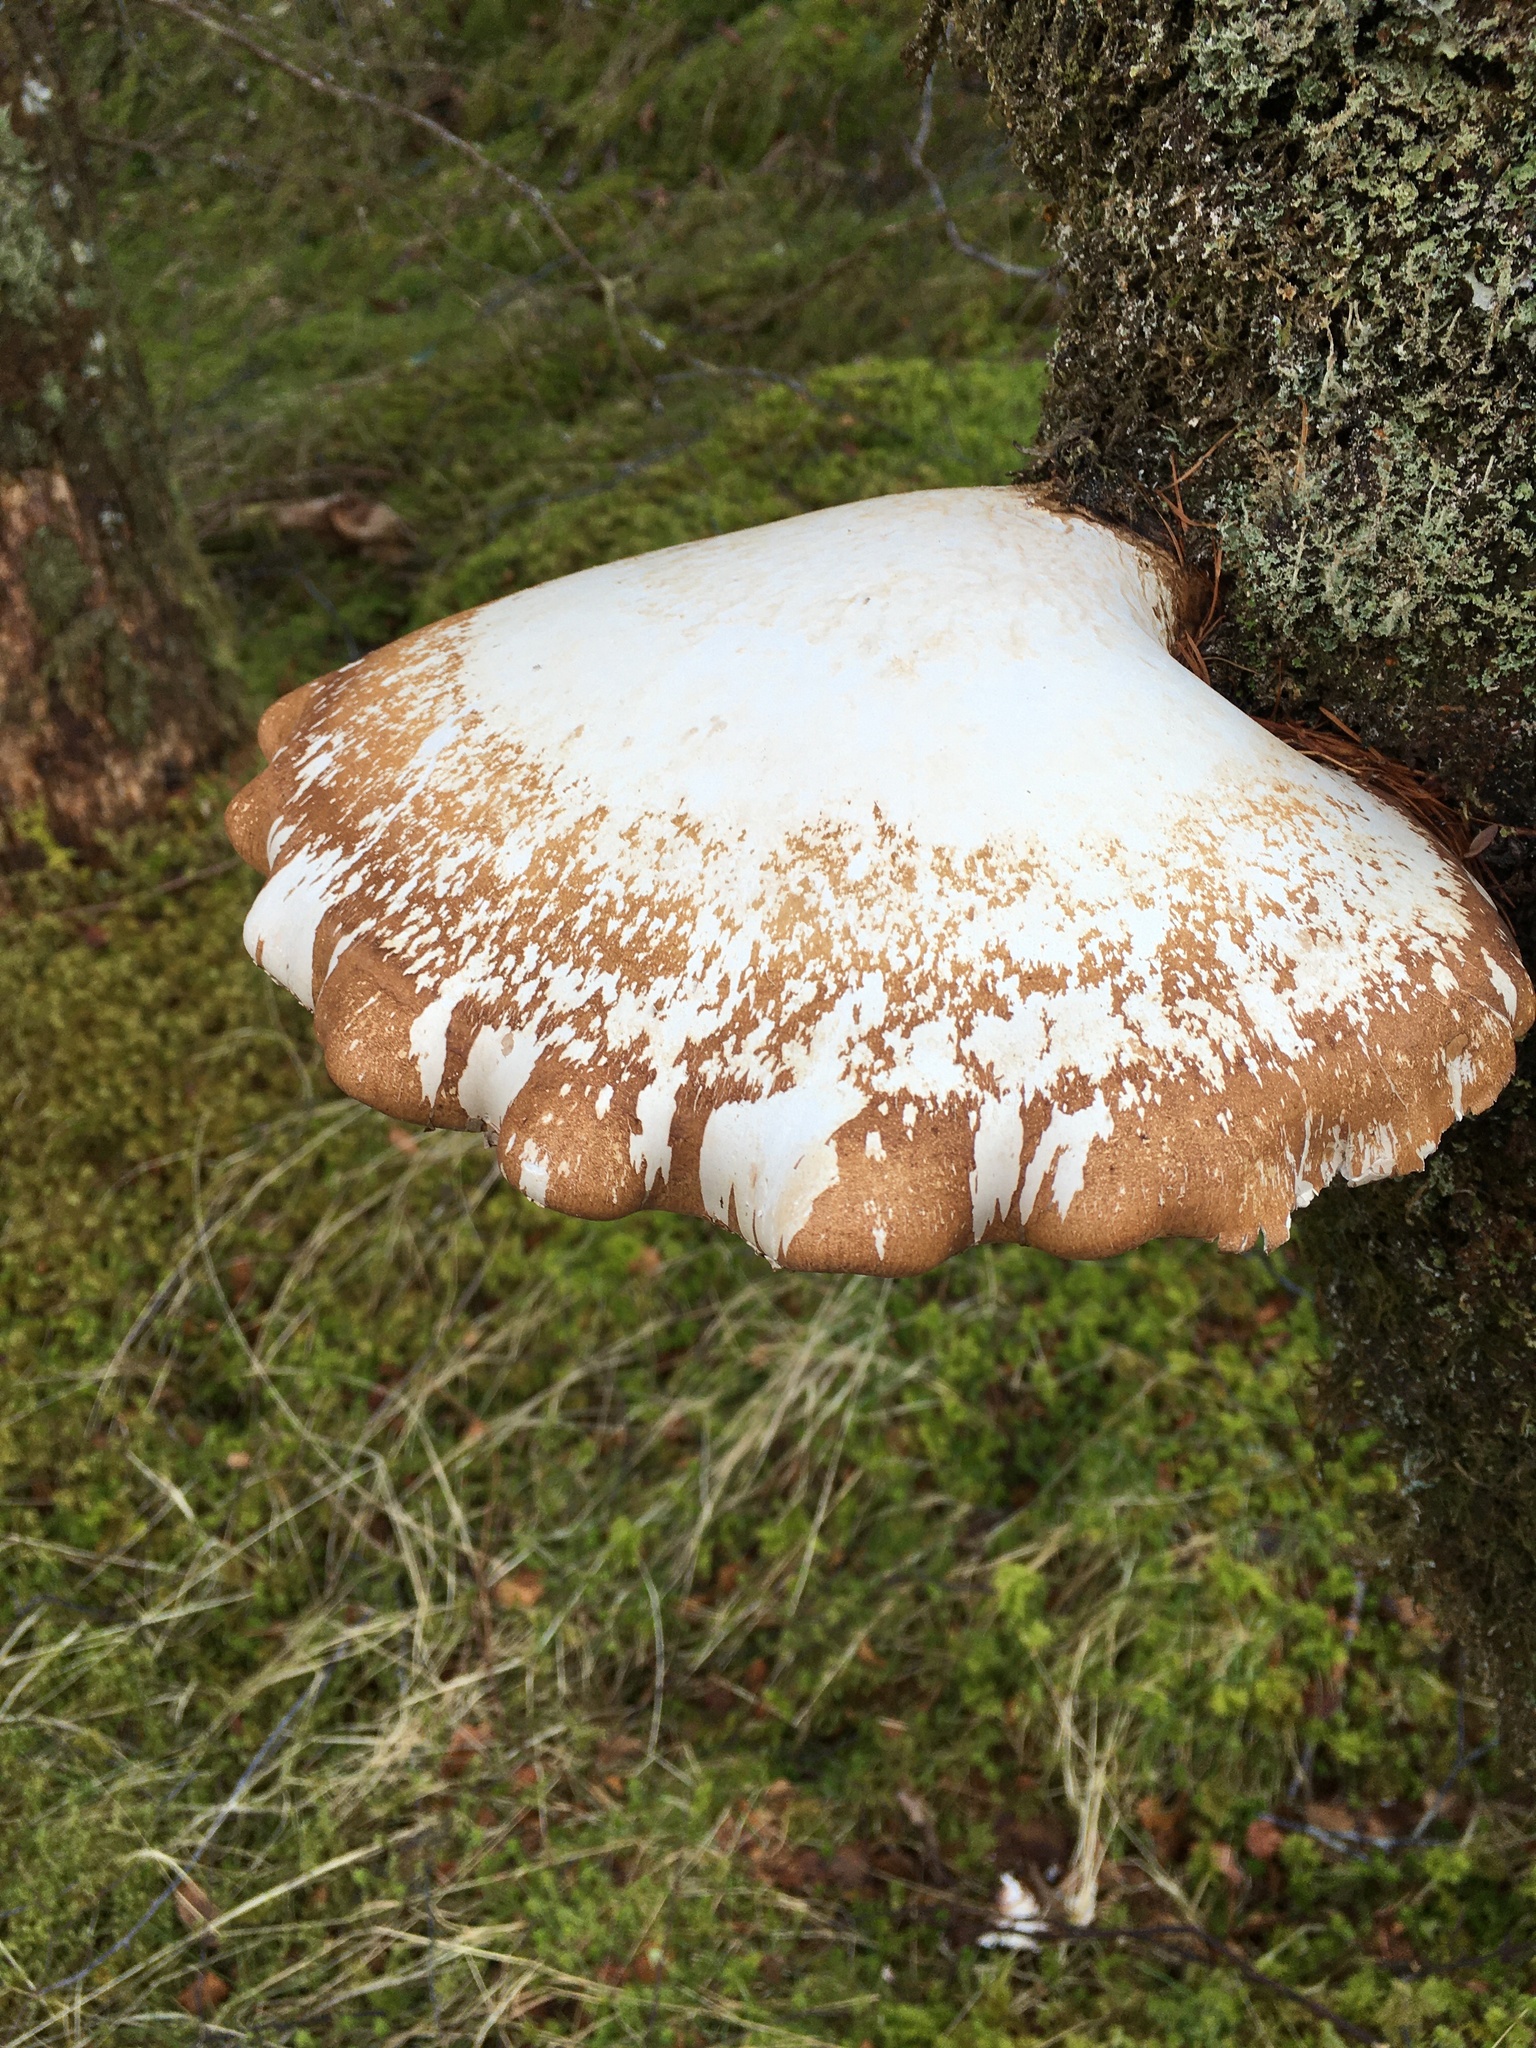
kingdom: Fungi
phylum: Basidiomycota
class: Agaricomycetes
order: Polyporales
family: Fomitopsidaceae
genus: Fomitopsis
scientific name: Fomitopsis betulina
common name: Birch polypore
